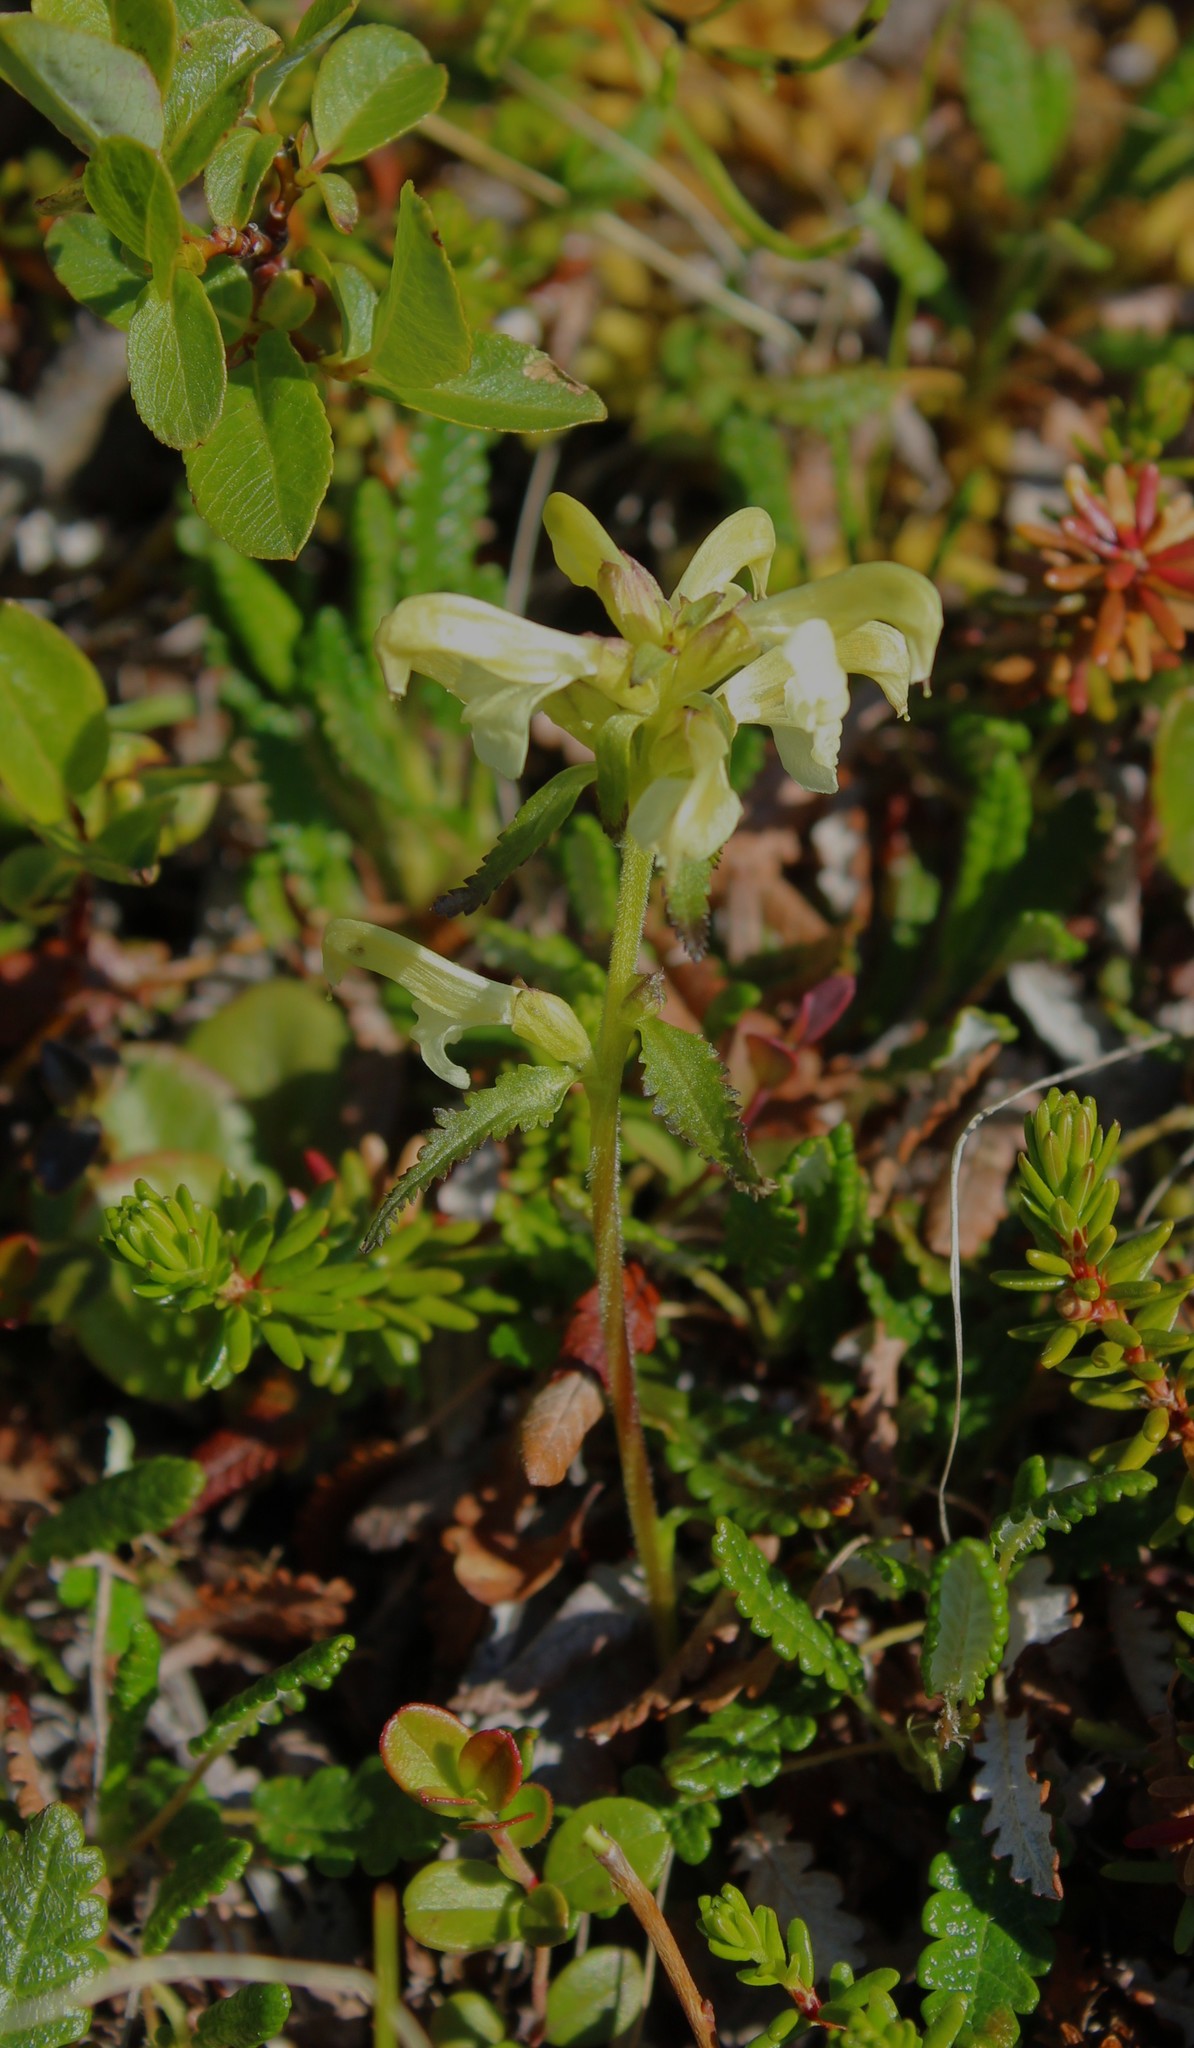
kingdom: Plantae
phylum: Tracheophyta
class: Magnoliopsida
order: Lamiales
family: Orobanchaceae
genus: Pedicularis
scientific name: Pedicularis lapponica
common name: Lapland lousewort
